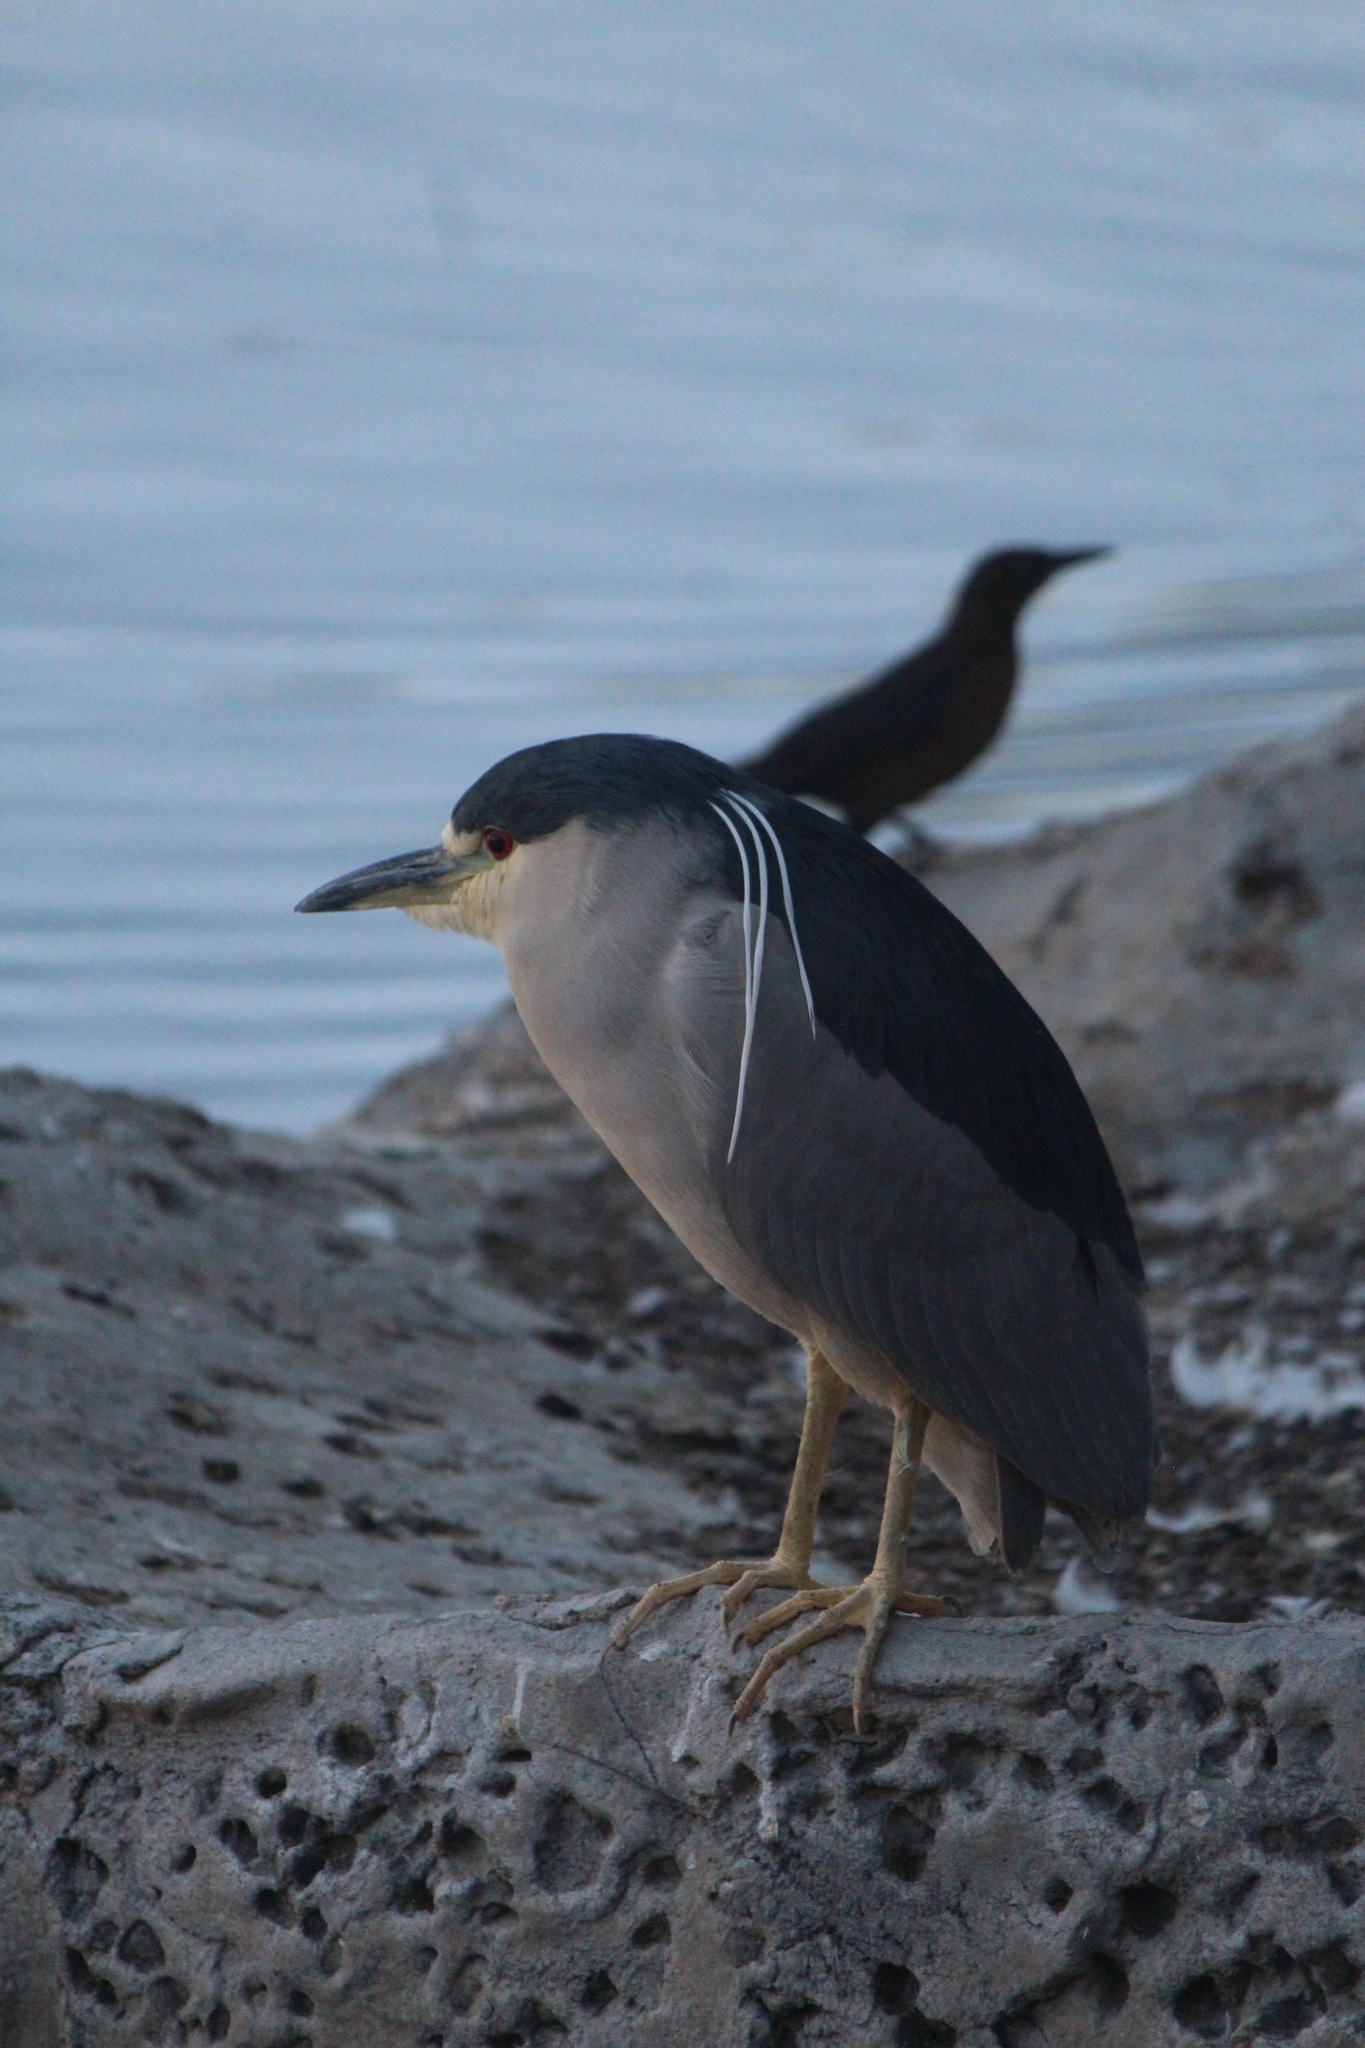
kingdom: Animalia
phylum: Chordata
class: Aves
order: Pelecaniformes
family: Ardeidae
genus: Nycticorax
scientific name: Nycticorax nycticorax
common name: Black-crowned night heron
